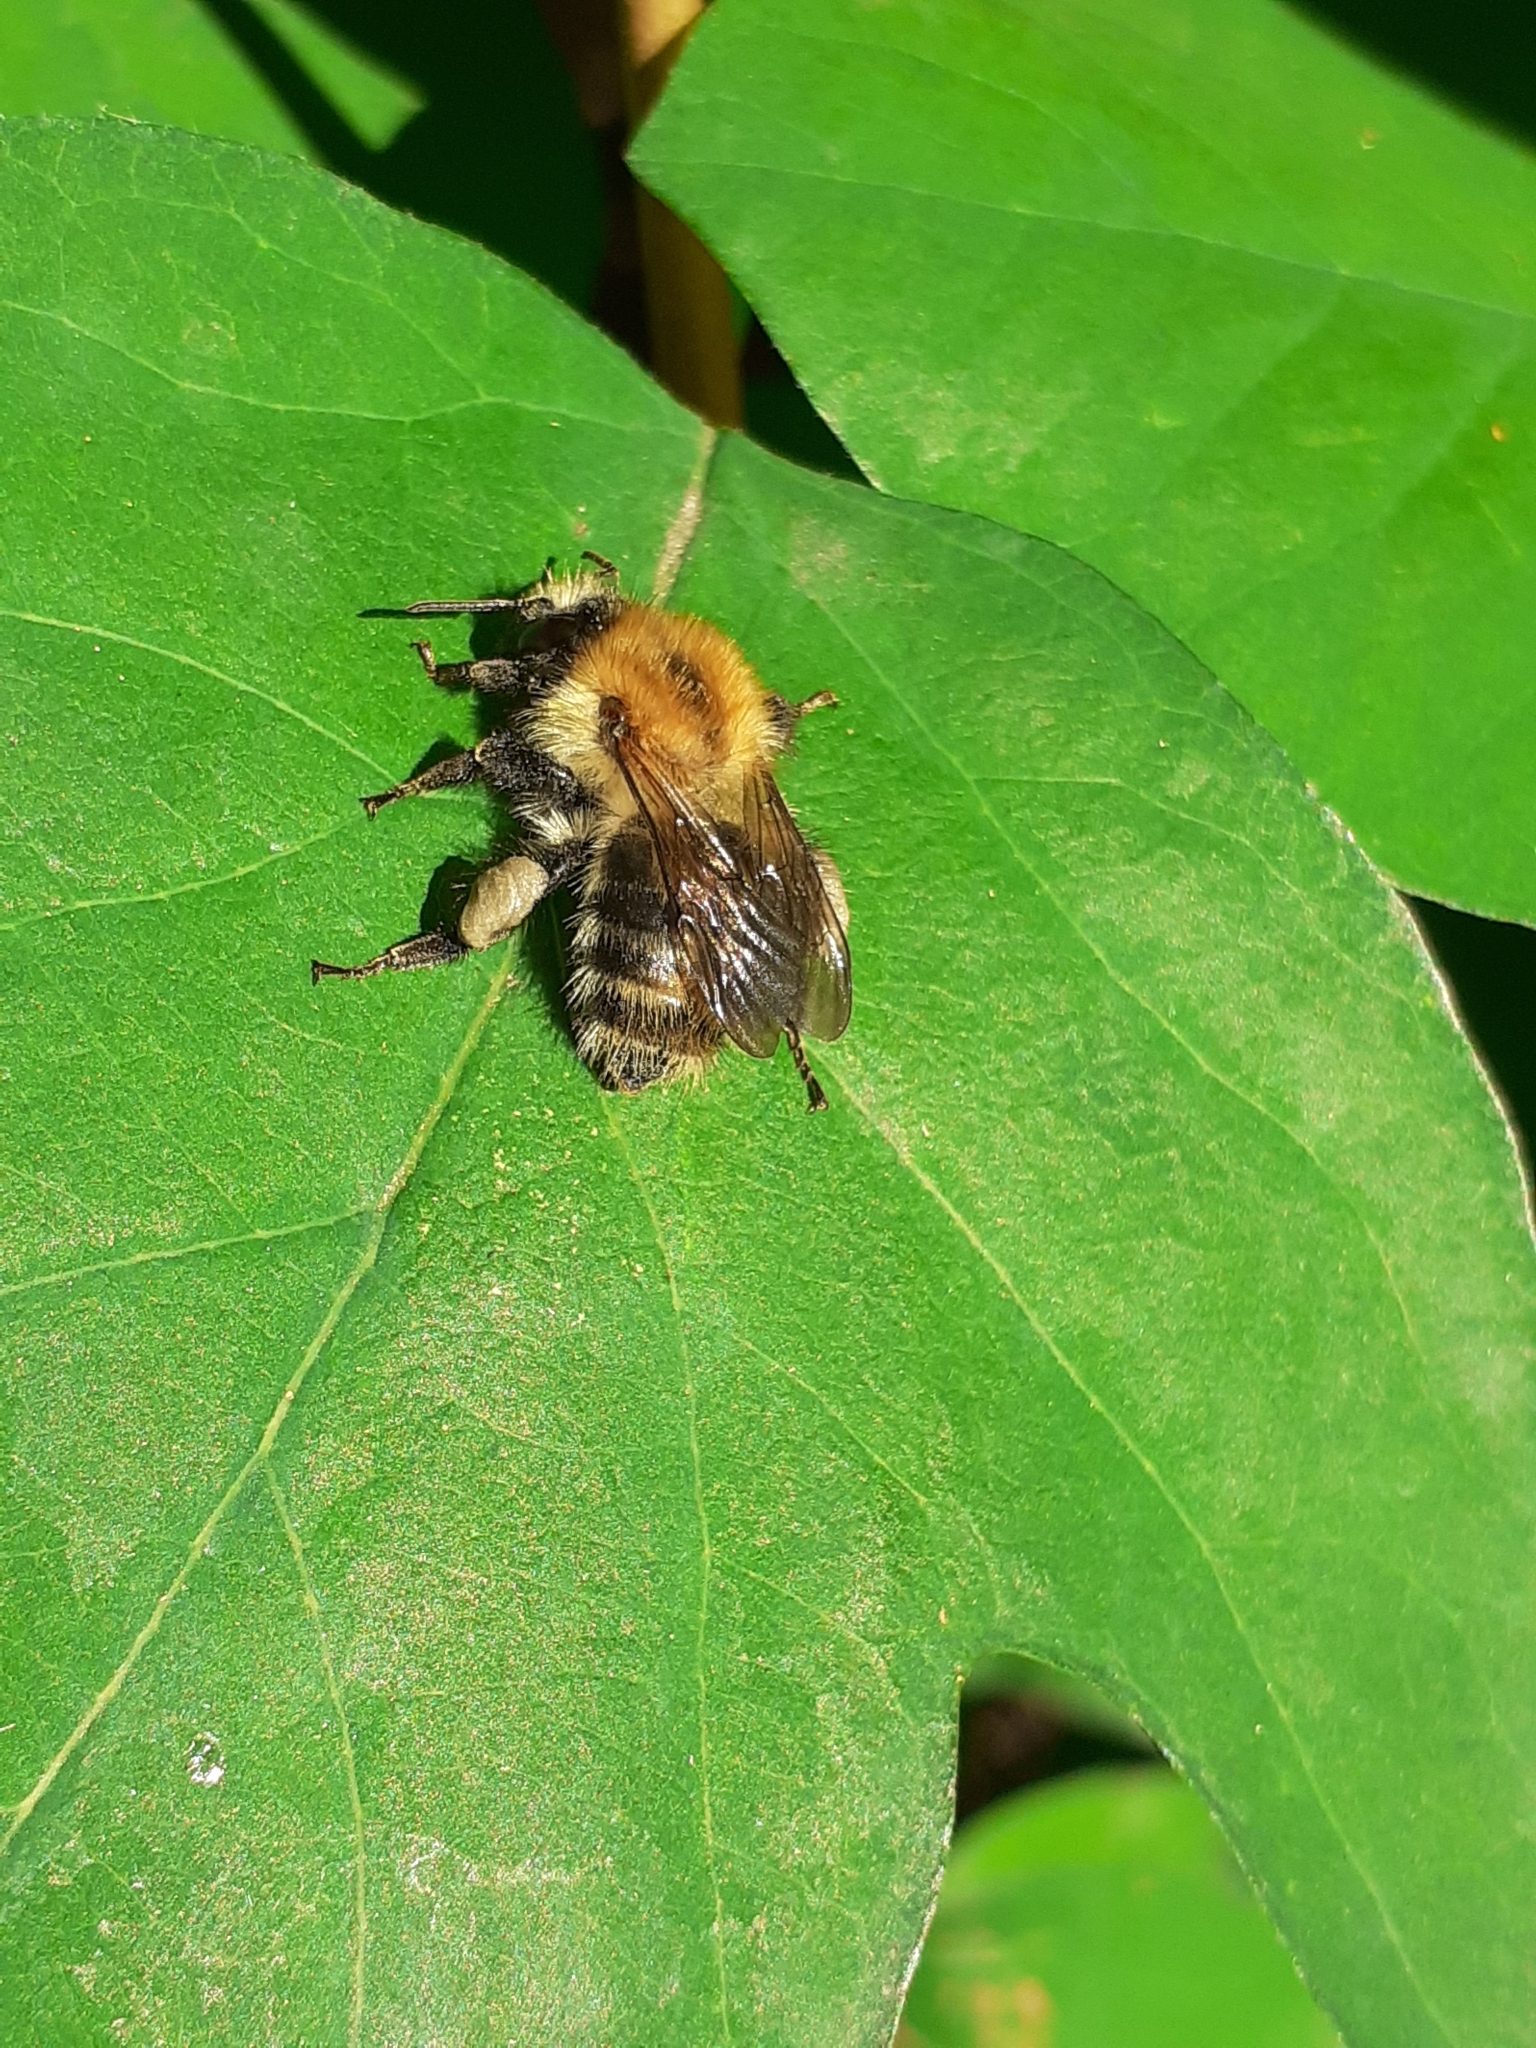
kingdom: Animalia
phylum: Arthropoda
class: Insecta
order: Hymenoptera
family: Apidae
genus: Bombus
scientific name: Bombus pascuorum
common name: Common carder bee
